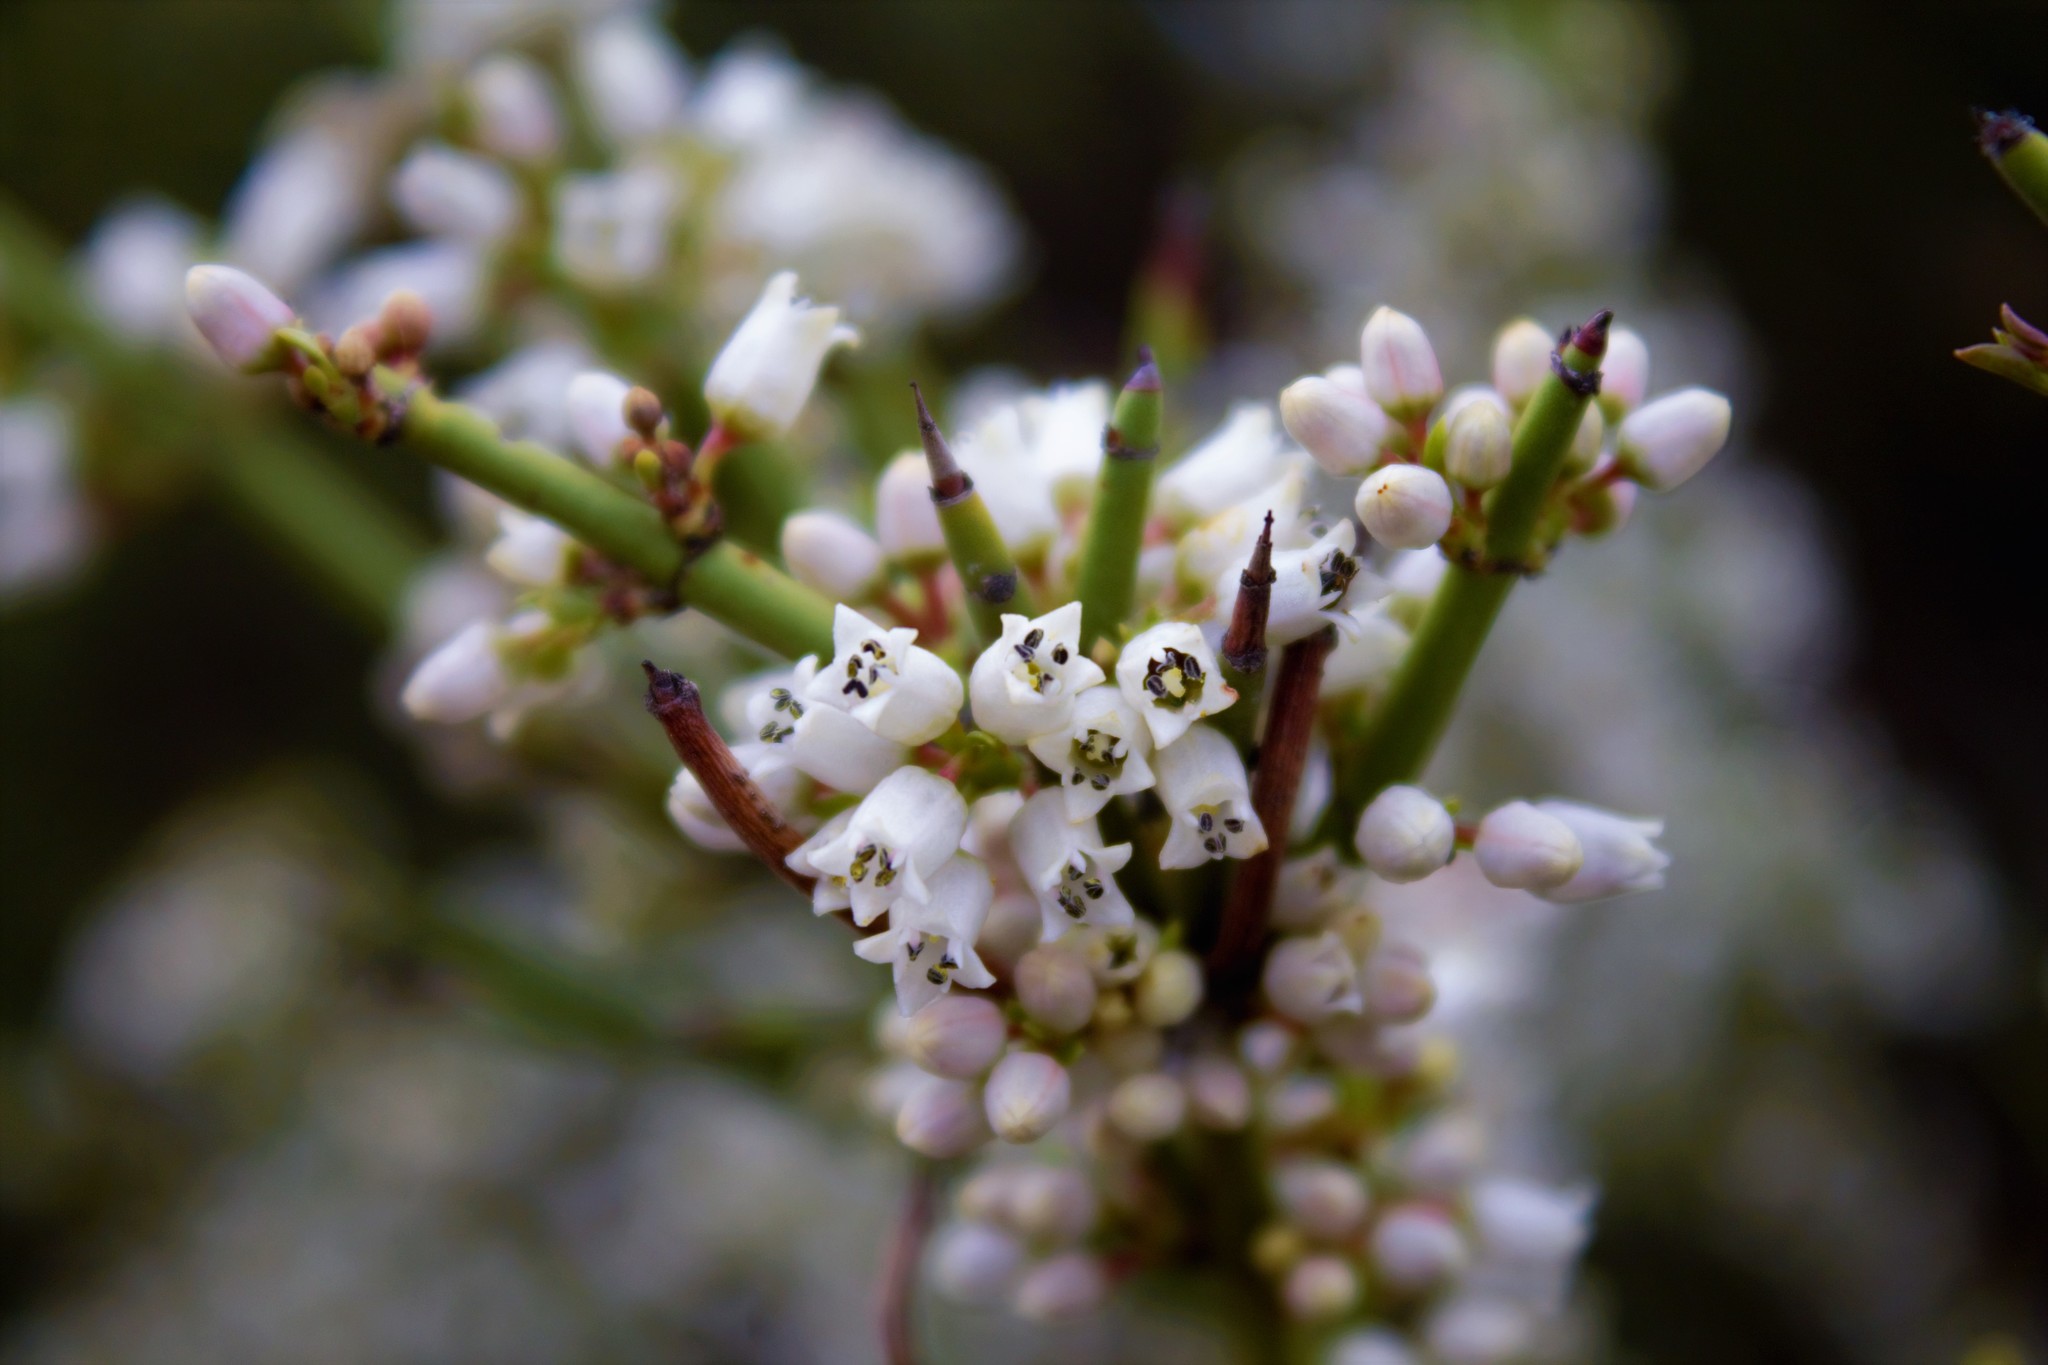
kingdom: Plantae
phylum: Tracheophyta
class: Magnoliopsida
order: Rosales
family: Rhamnaceae
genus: Discaria
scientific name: Discaria articulata
